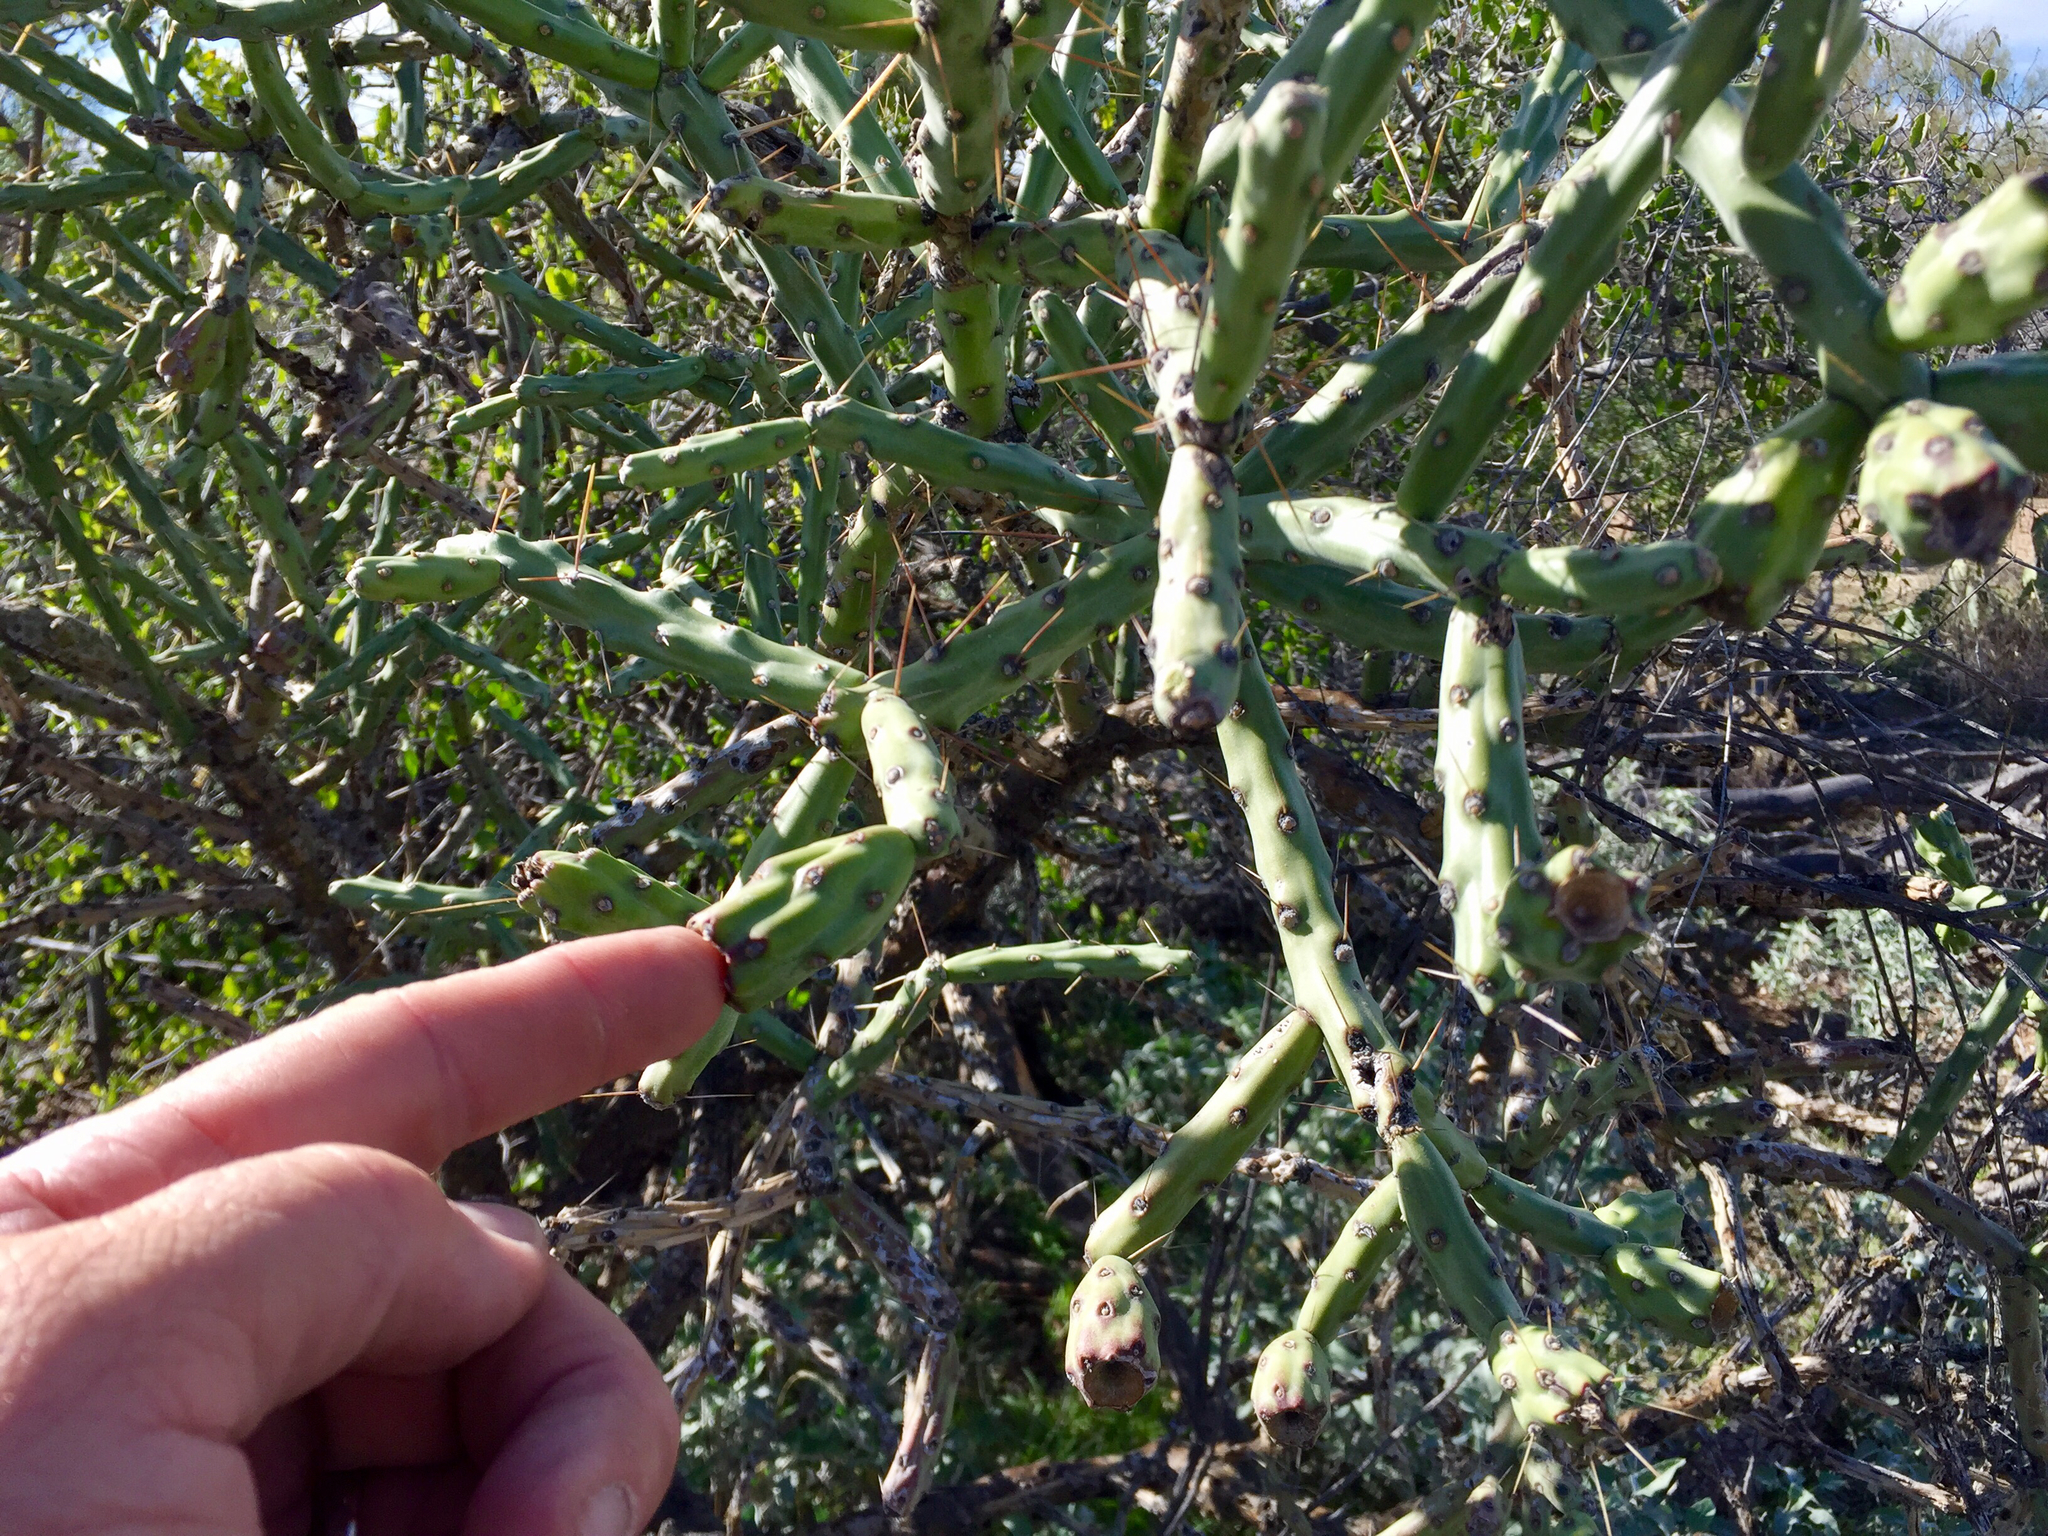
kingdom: Plantae
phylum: Tracheophyta
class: Magnoliopsida
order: Caryophyllales
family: Cactaceae
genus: Cylindropuntia
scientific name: Cylindropuntia arbuscula
